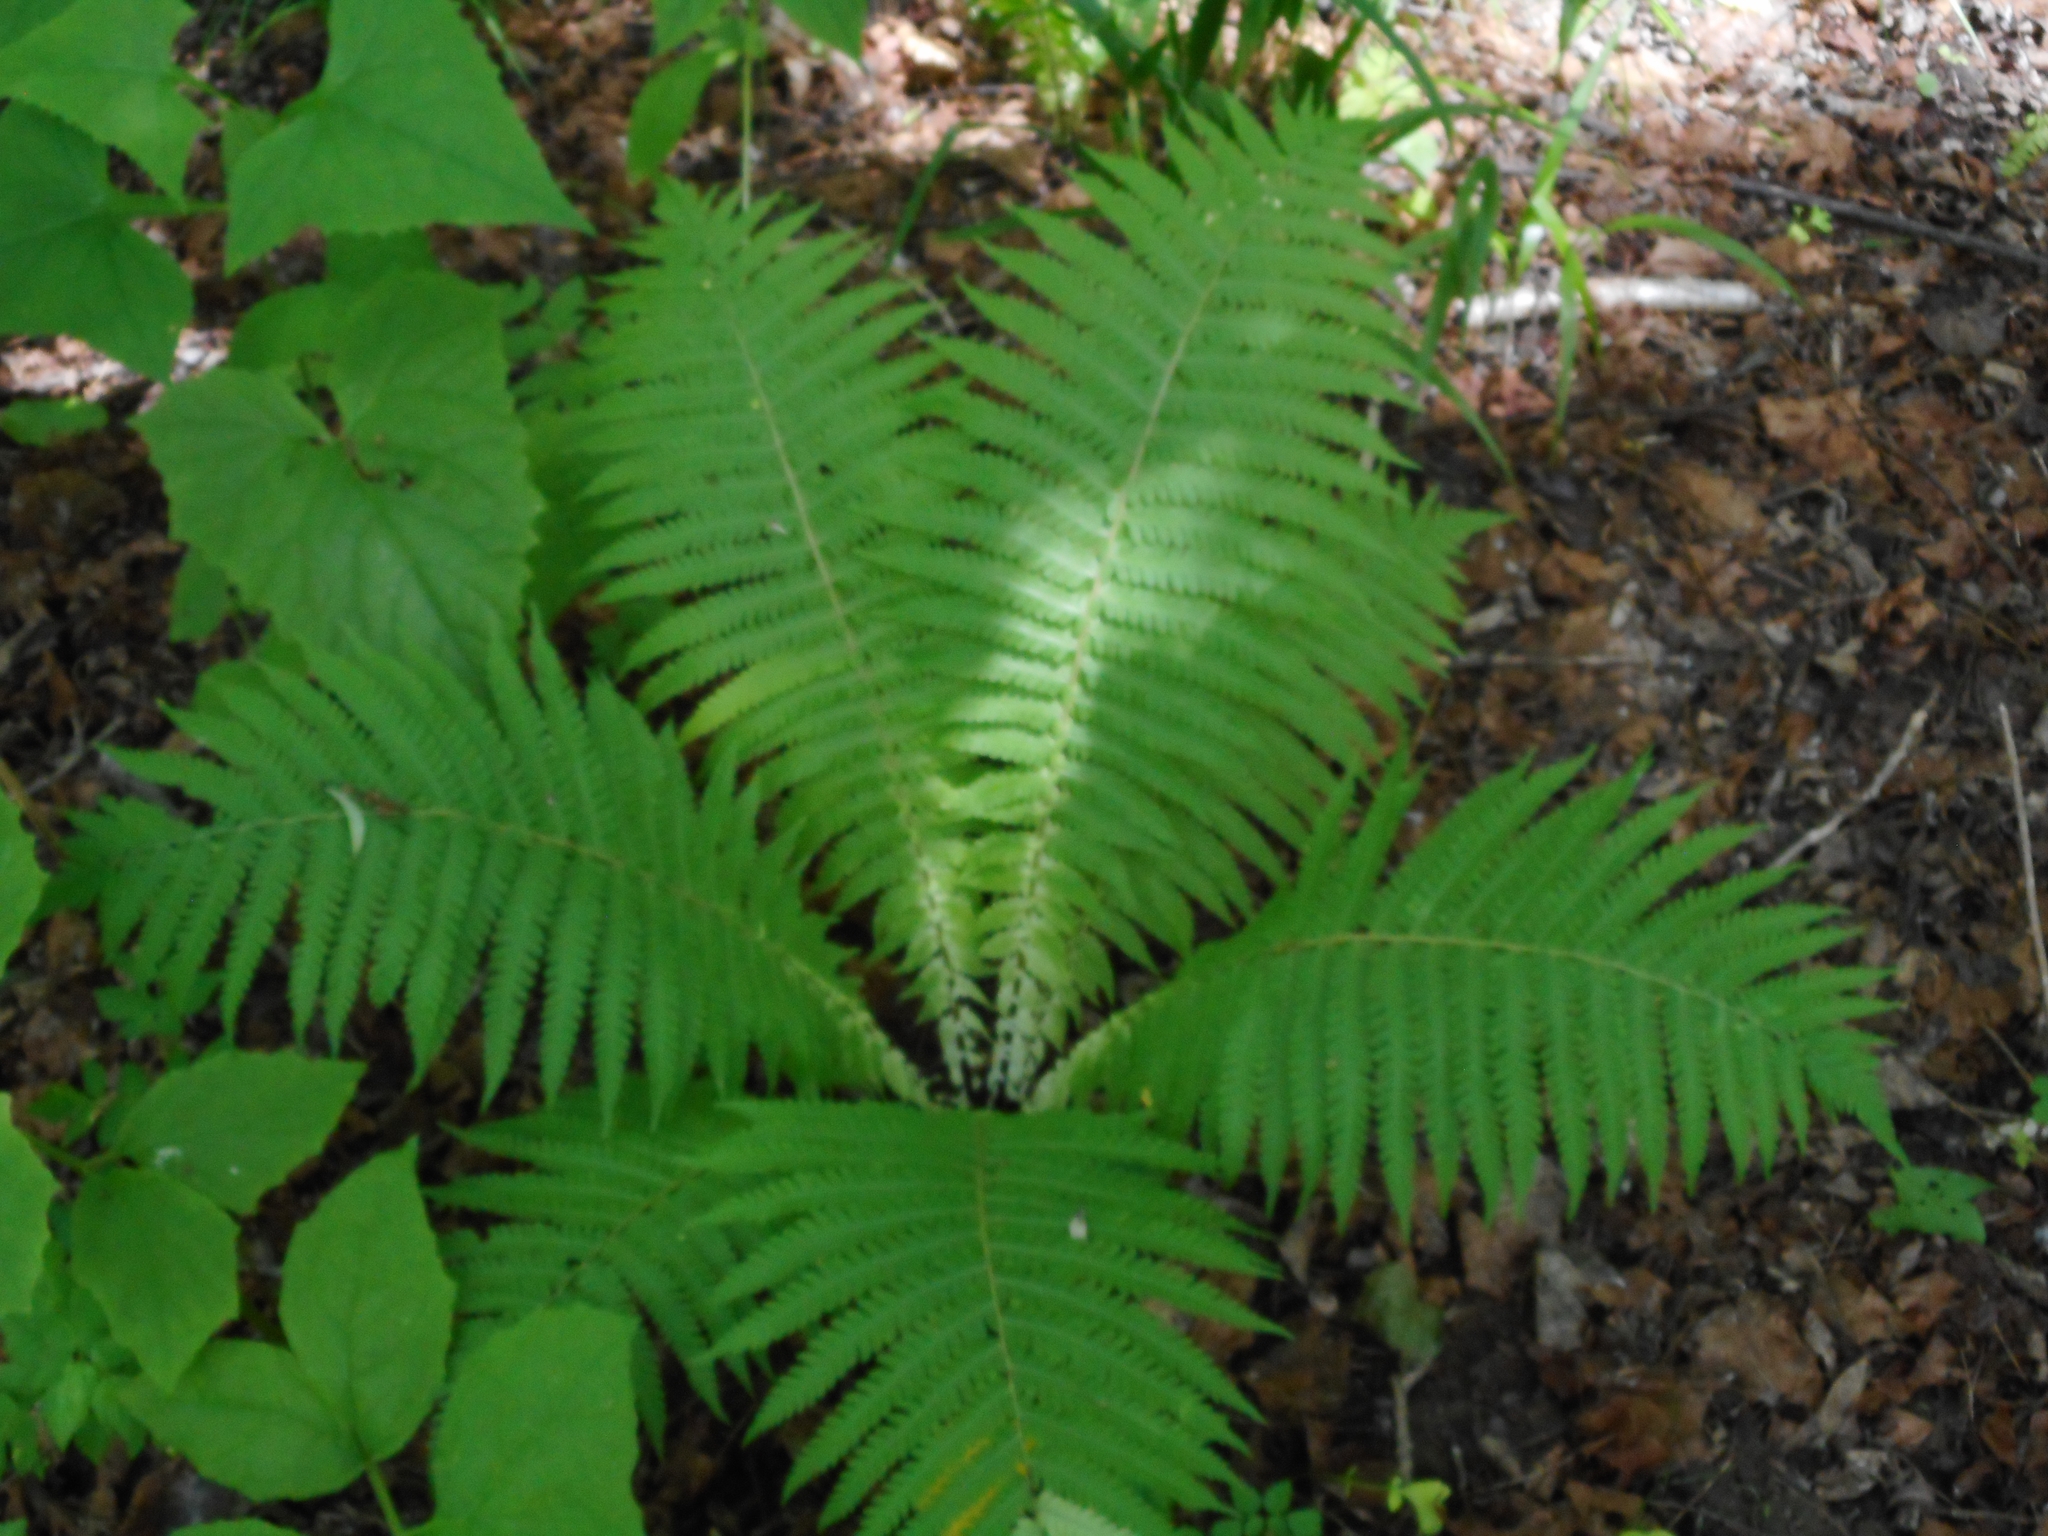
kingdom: Plantae
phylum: Tracheophyta
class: Polypodiopsida
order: Polypodiales
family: Onocleaceae
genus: Matteuccia
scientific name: Matteuccia struthiopteris
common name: Ostrich fern
